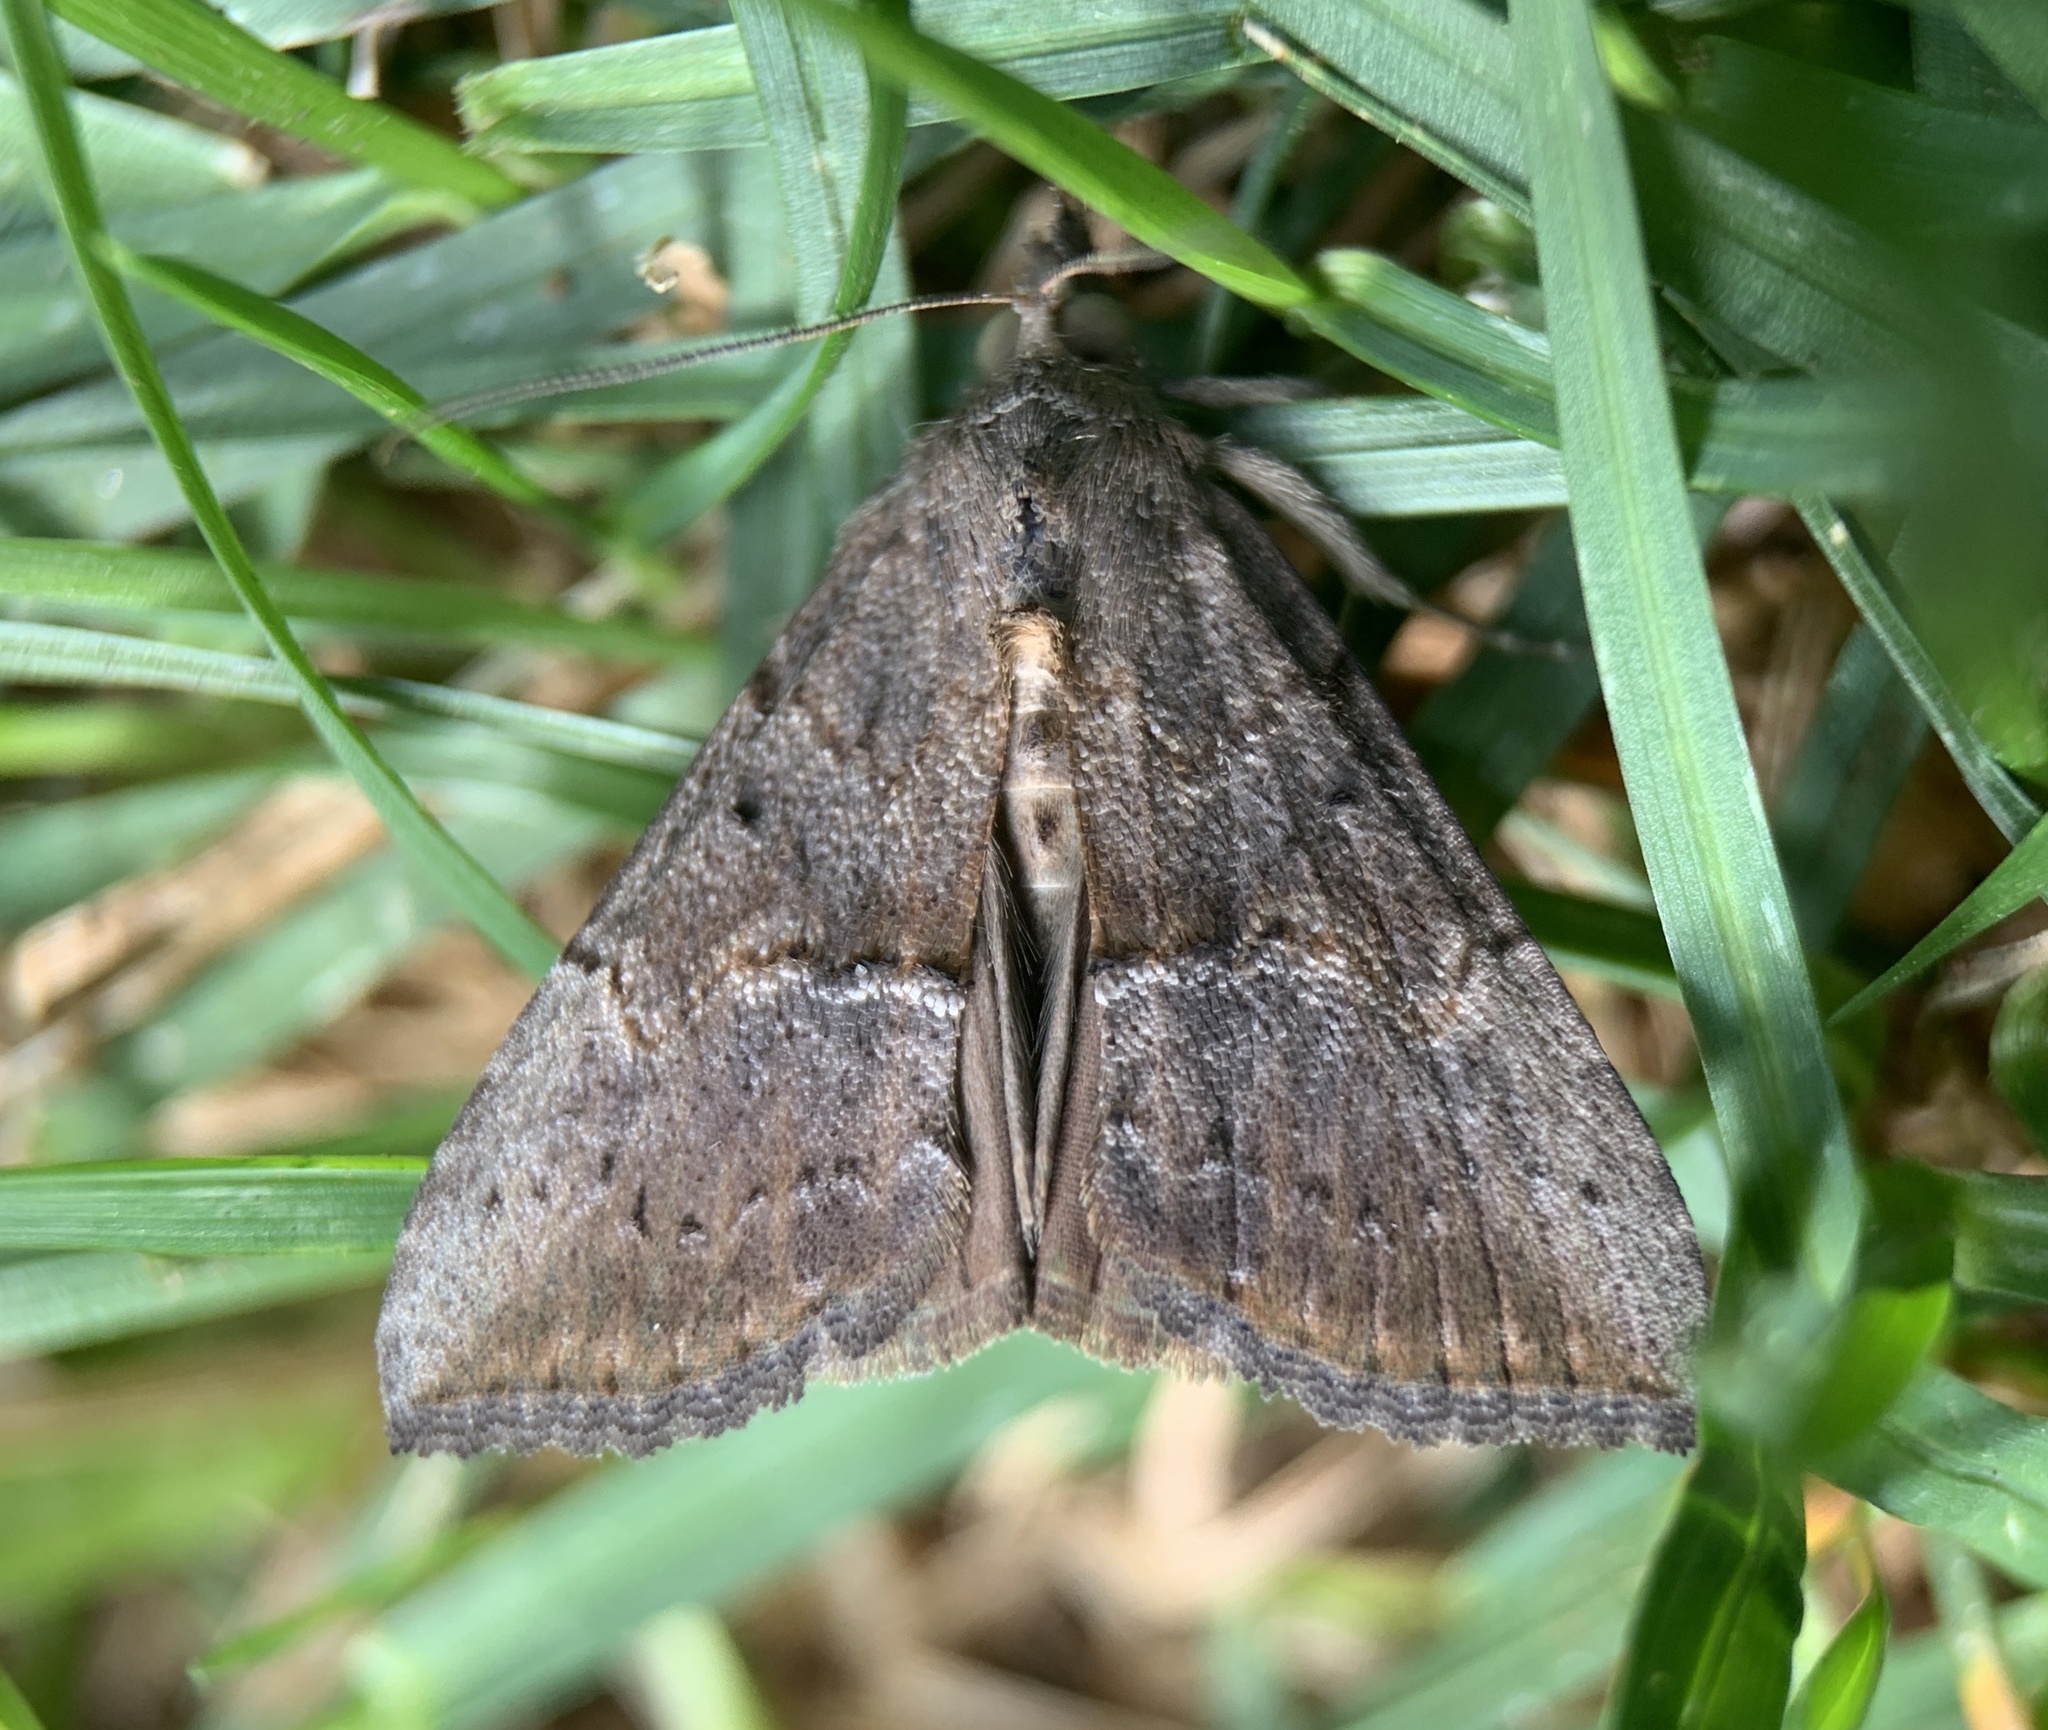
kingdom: Animalia
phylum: Arthropoda
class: Insecta
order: Lepidoptera
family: Erebidae
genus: Hypena
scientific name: Hypena scabra
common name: Green cloverworm
